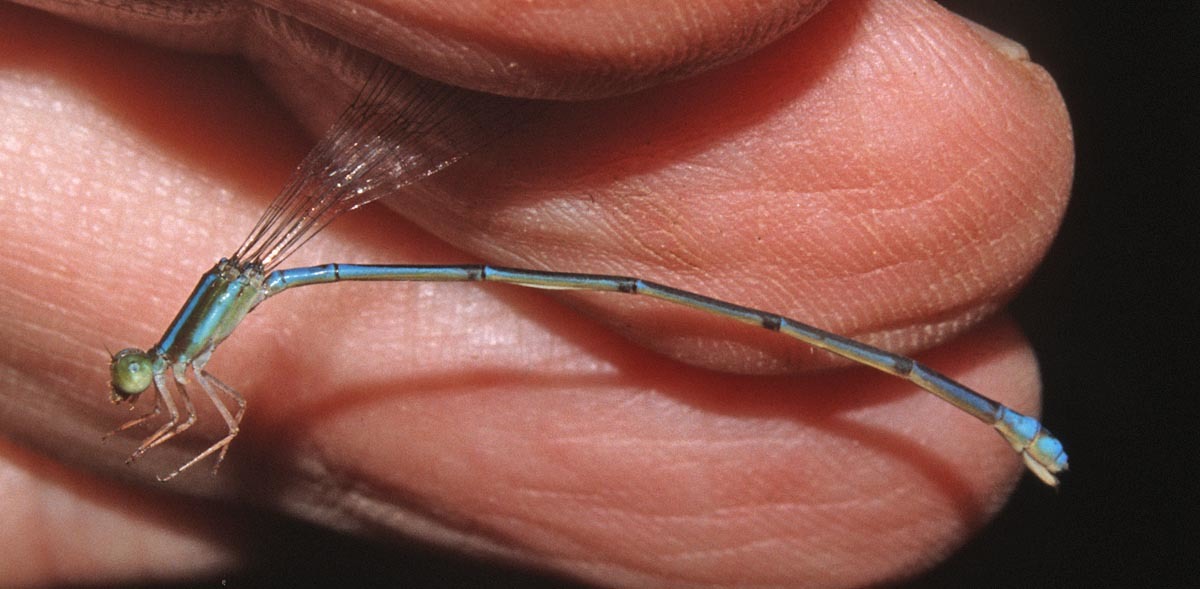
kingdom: Animalia
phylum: Arthropoda
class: Insecta
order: Odonata
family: Coenagrionidae
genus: Leptobasis
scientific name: Leptobasis mauffrayi
